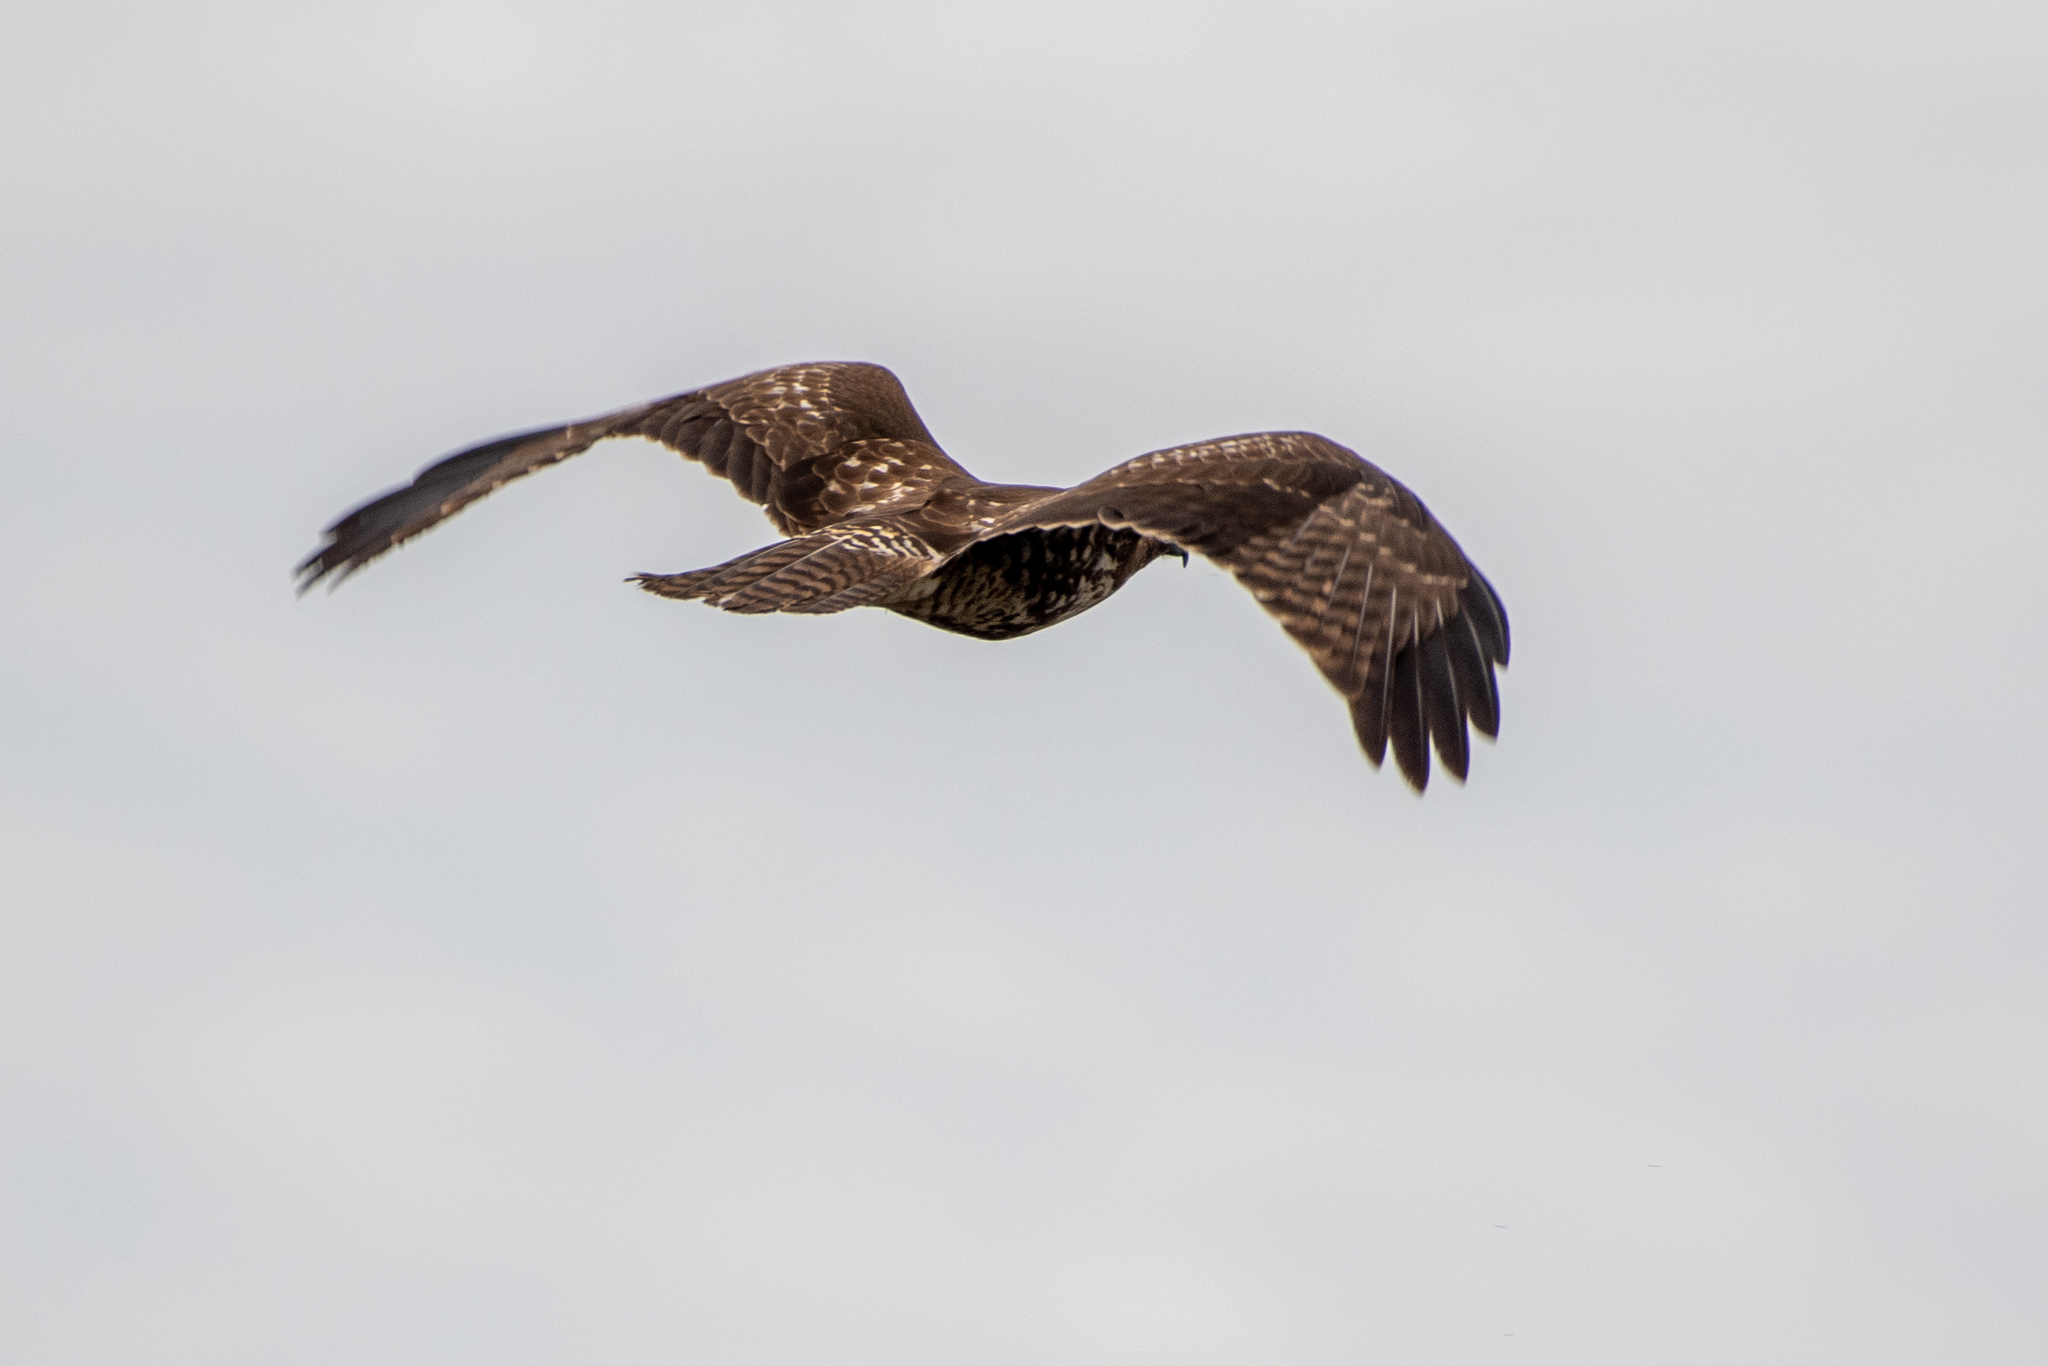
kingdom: Animalia
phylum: Chordata
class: Aves
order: Accipitriformes
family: Accipitridae
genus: Buteo
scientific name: Buteo jamaicensis
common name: Red-tailed hawk
